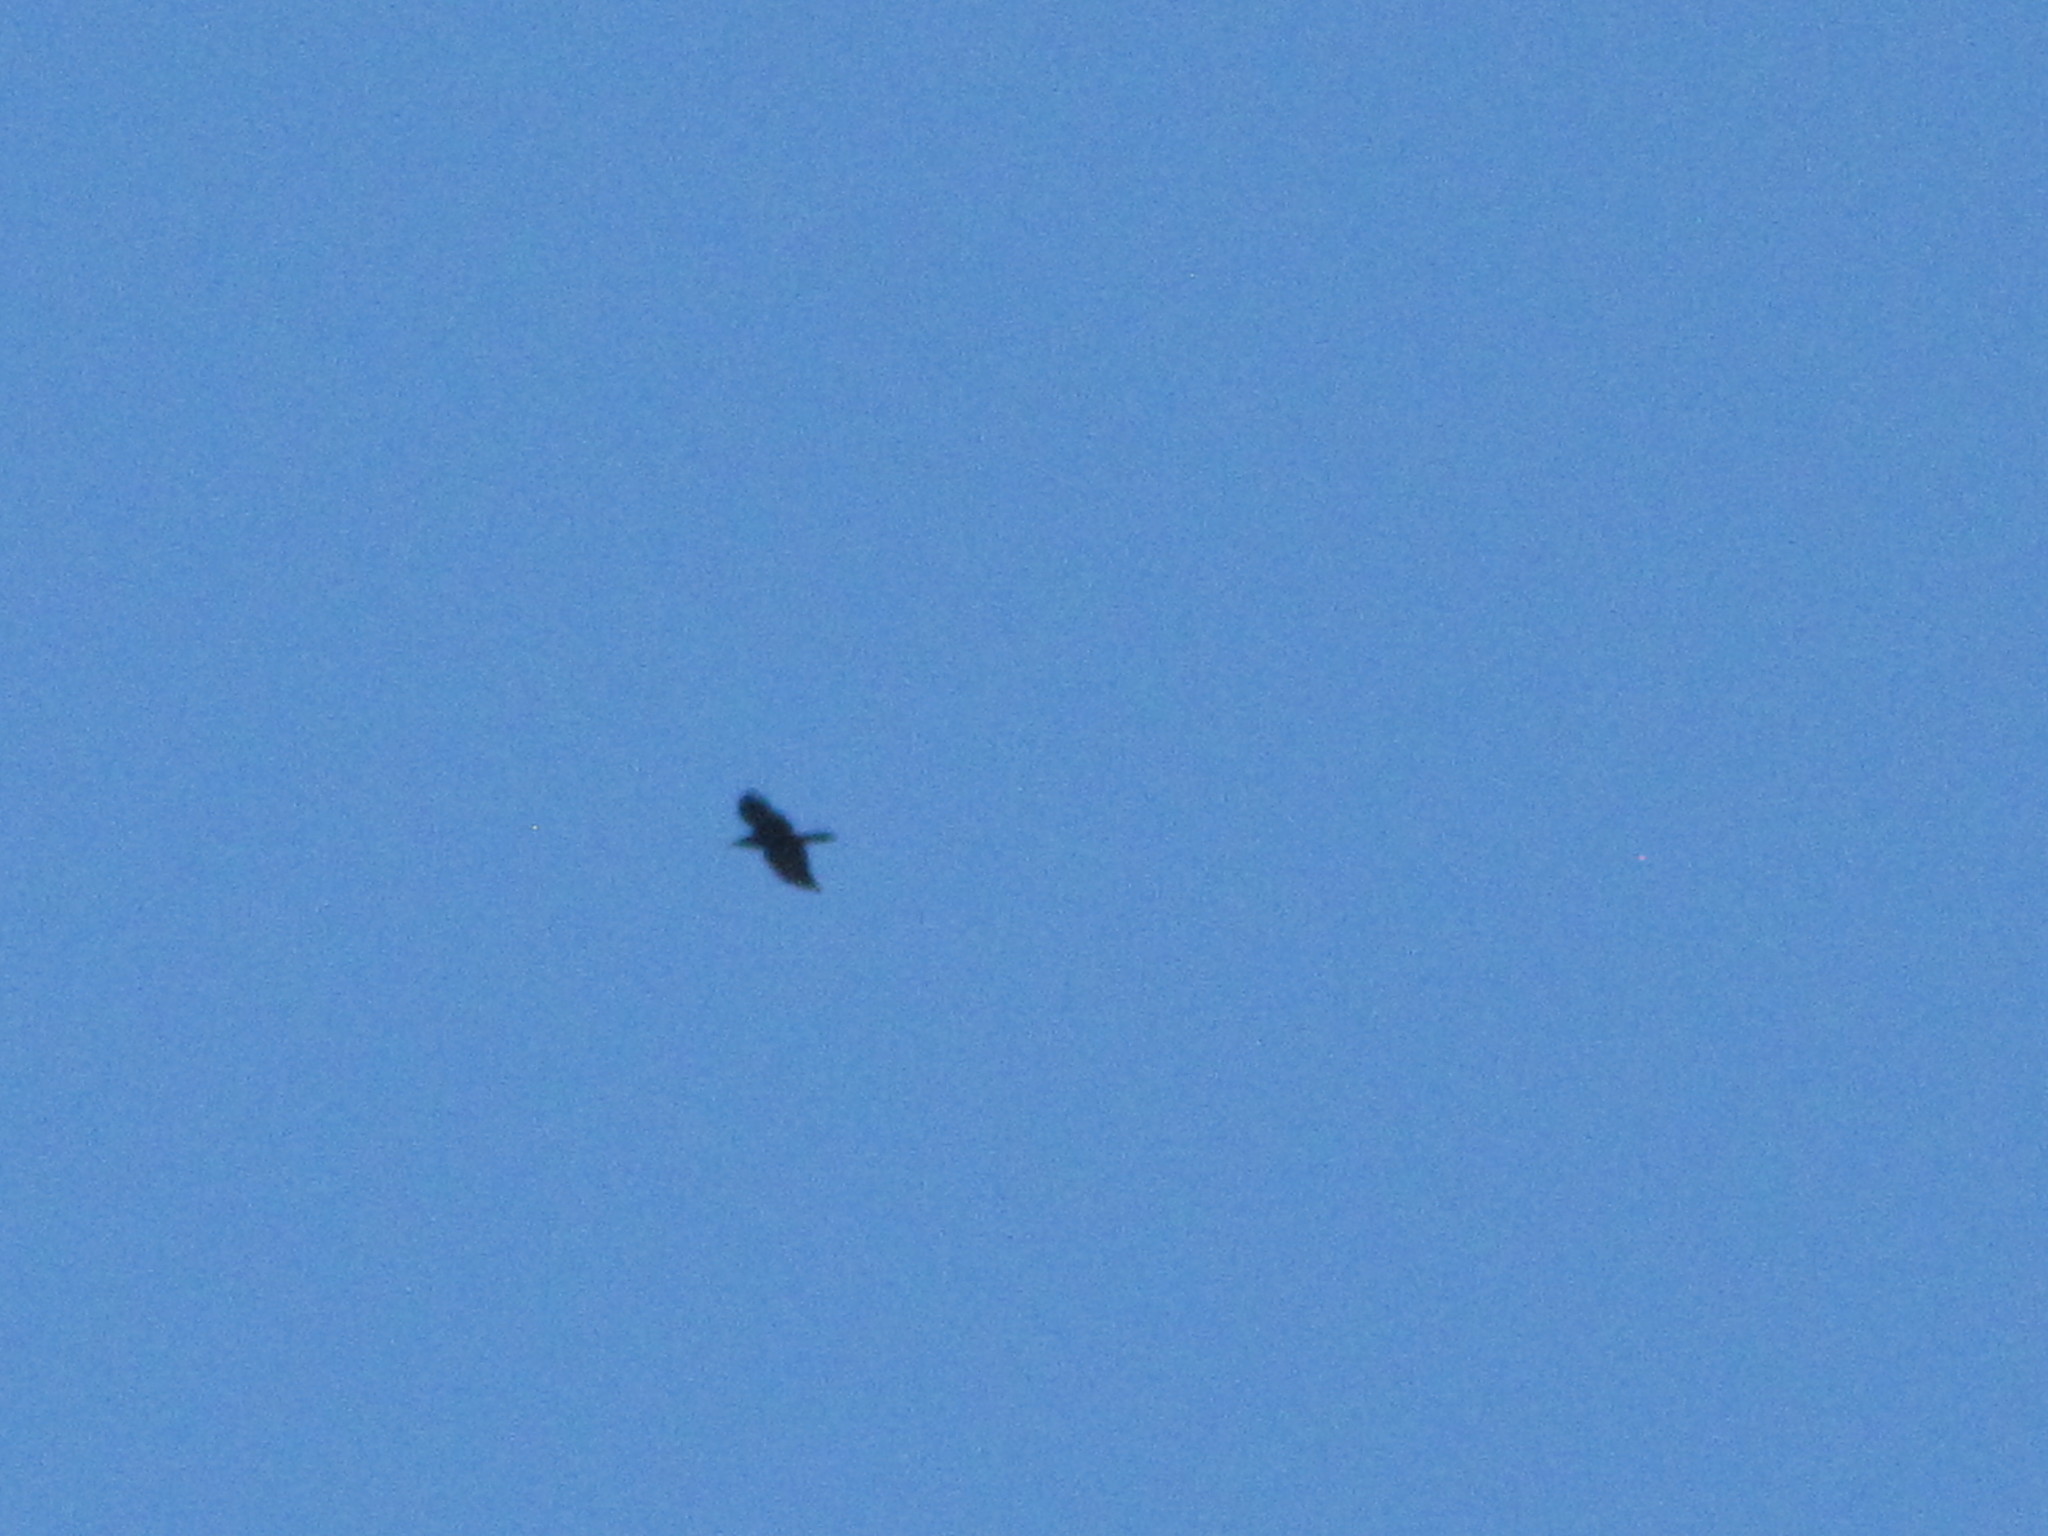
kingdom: Animalia
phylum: Chordata
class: Aves
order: Passeriformes
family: Corvidae
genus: Corvus
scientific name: Corvus corax
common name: Common raven
